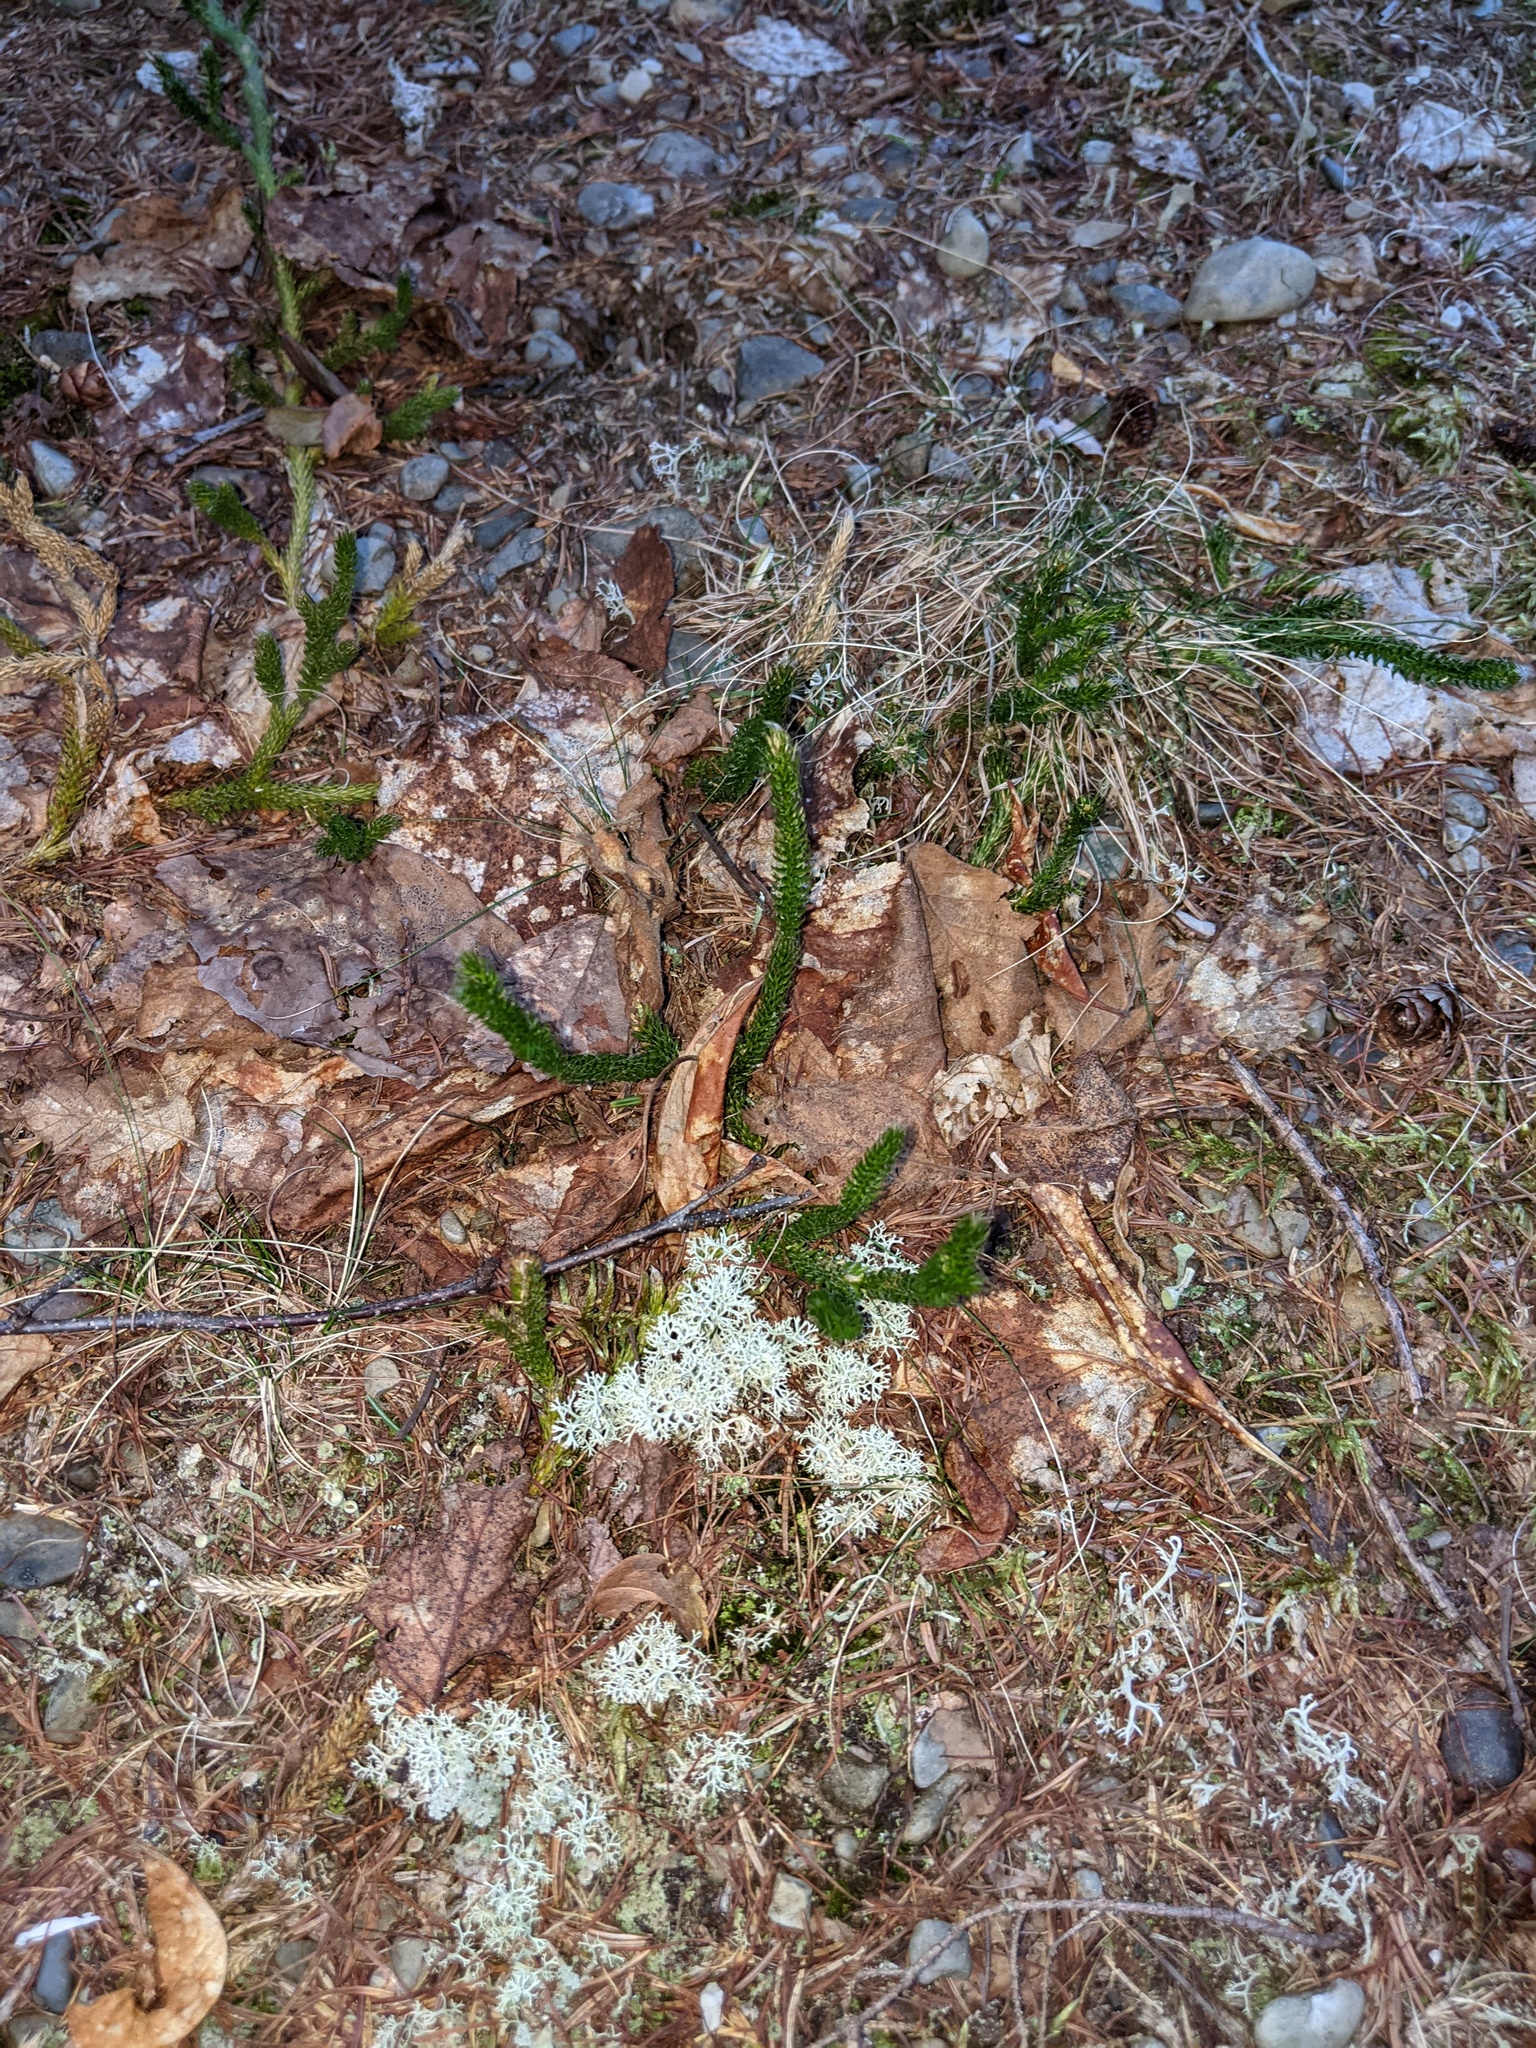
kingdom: Plantae
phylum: Tracheophyta
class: Lycopodiopsida
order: Lycopodiales
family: Lycopodiaceae
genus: Lycopodium
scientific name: Lycopodium clavatum
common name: Stag's-horn clubmoss
